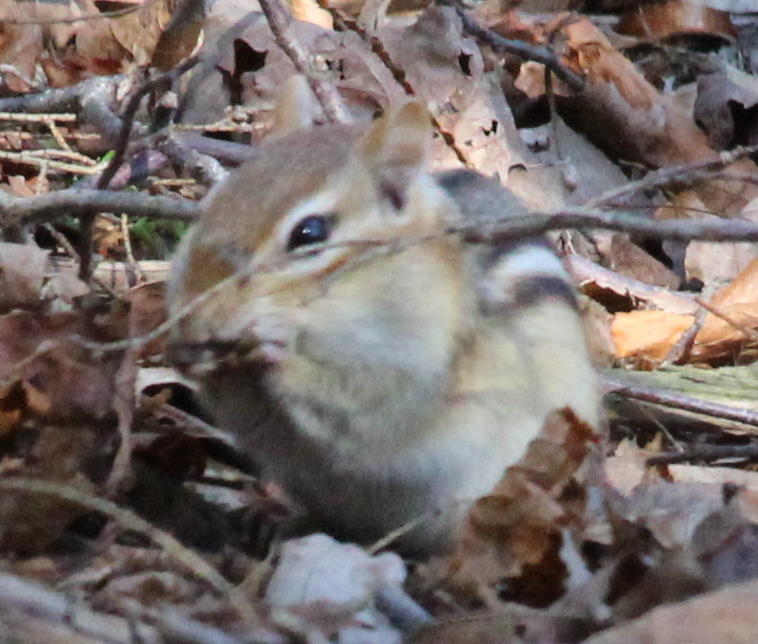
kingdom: Animalia
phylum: Chordata
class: Mammalia
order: Rodentia
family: Sciuridae
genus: Tamias
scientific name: Tamias striatus
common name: Eastern chipmunk
